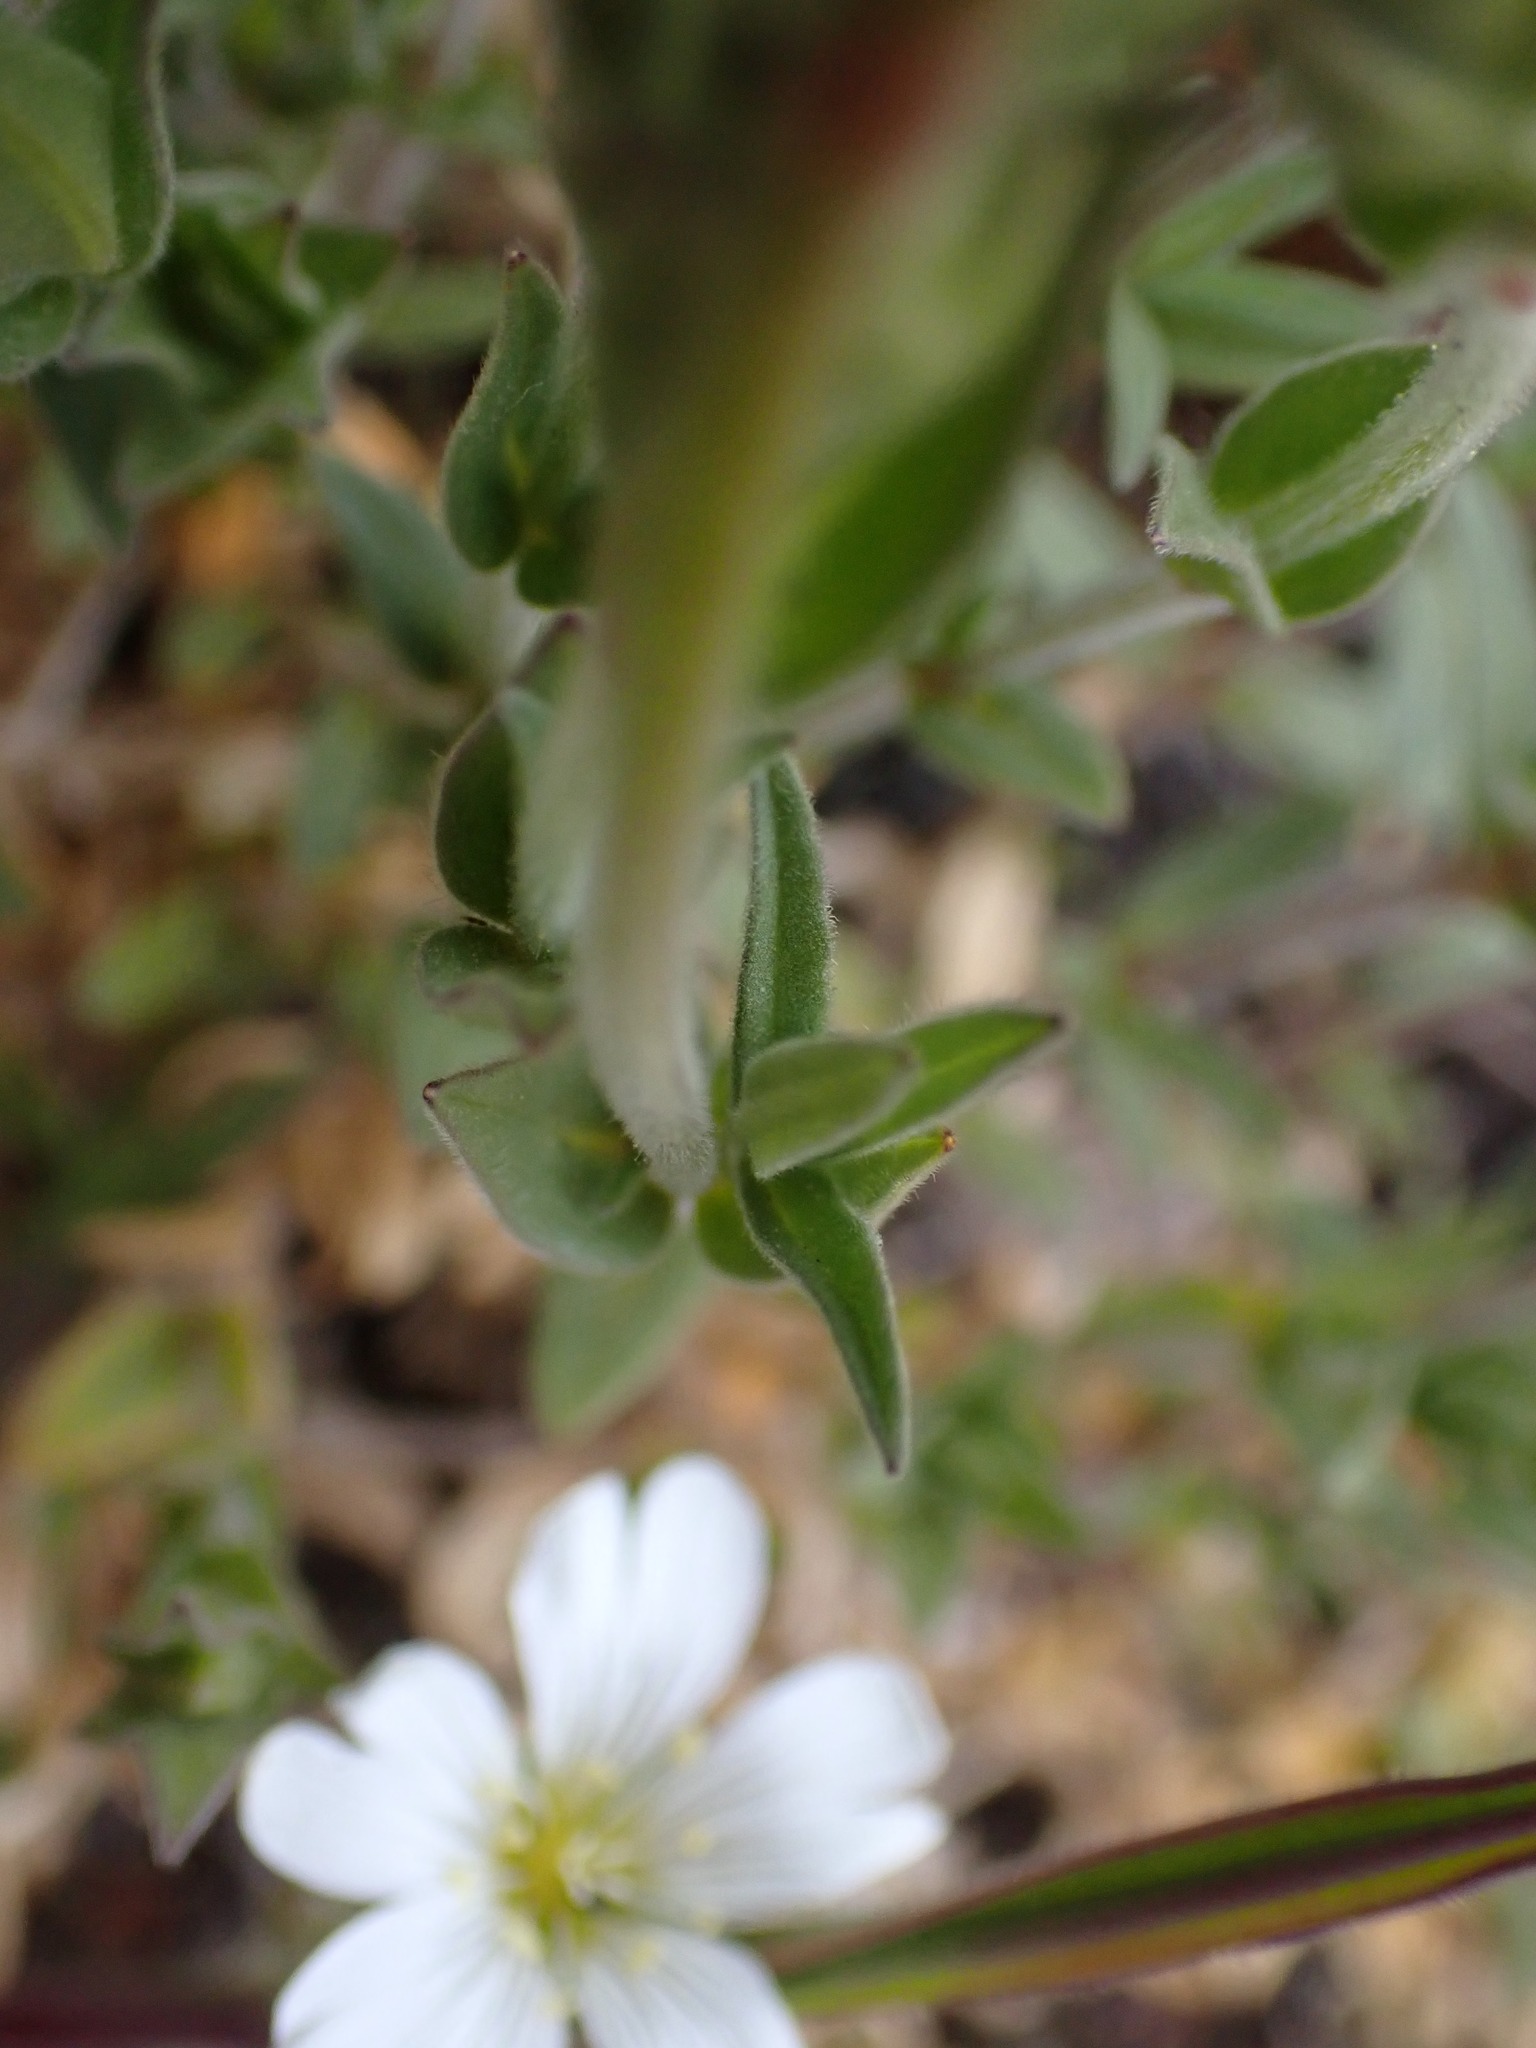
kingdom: Plantae
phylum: Tracheophyta
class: Magnoliopsida
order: Caryophyllales
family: Caryophyllaceae
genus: Cerastium
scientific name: Cerastium arvense
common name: Field mouse-ear
